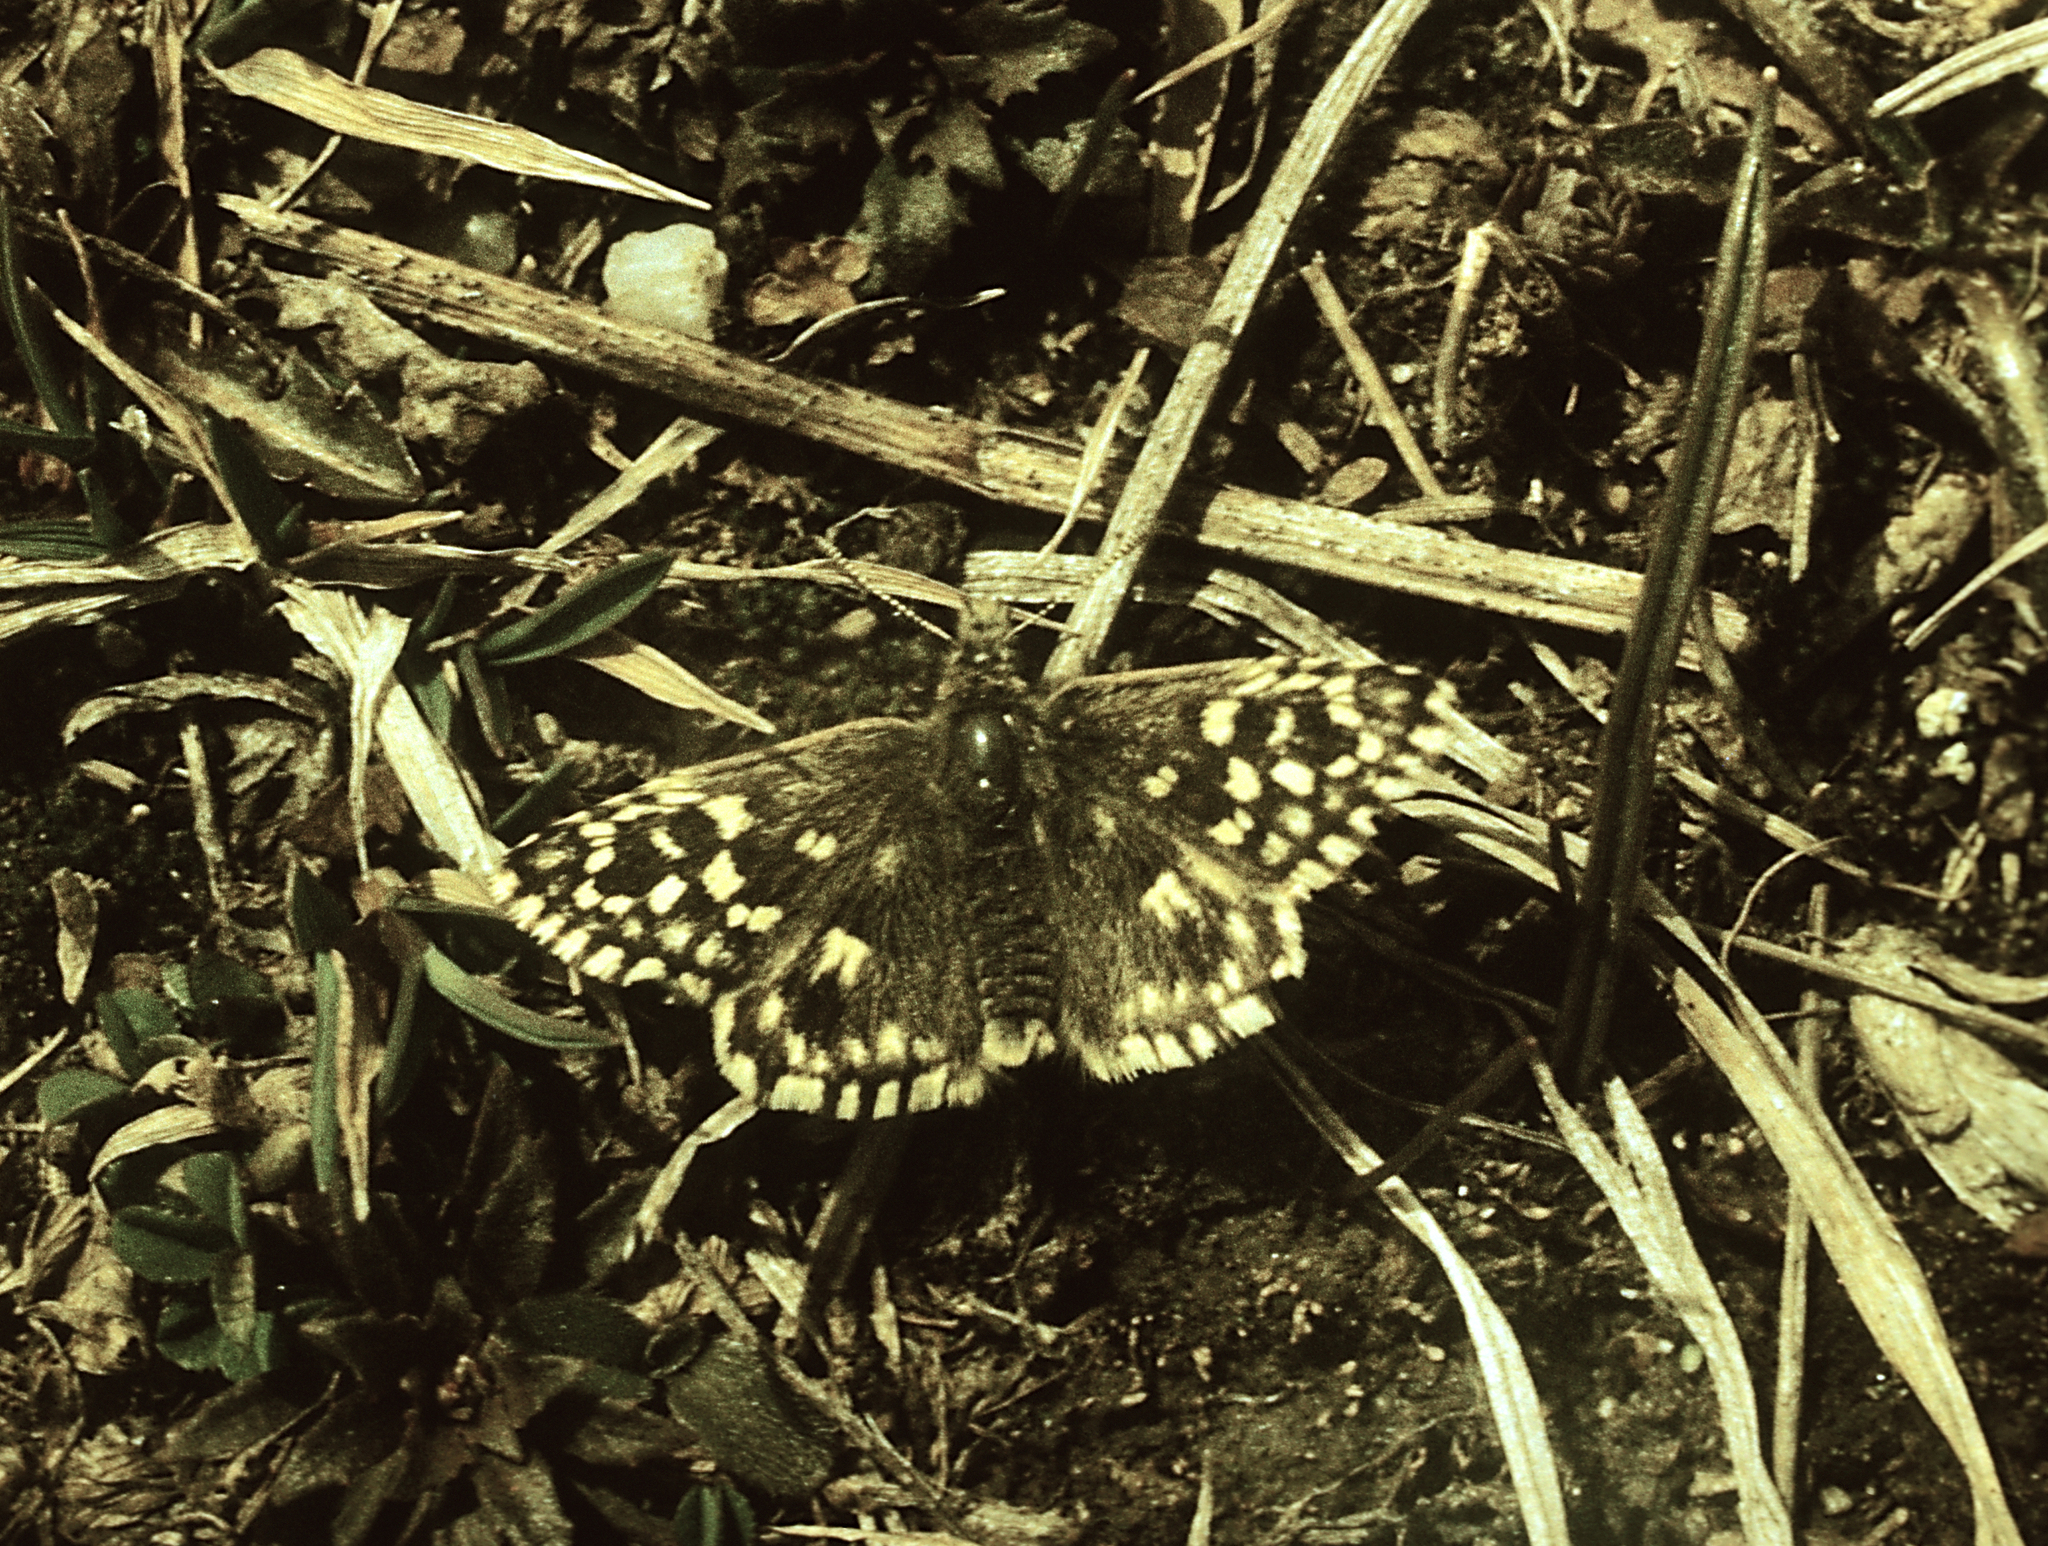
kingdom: Animalia
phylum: Arthropoda
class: Insecta
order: Lepidoptera
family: Hesperiidae
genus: Pyrgus
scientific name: Pyrgus malvae
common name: Grizzled skipper
